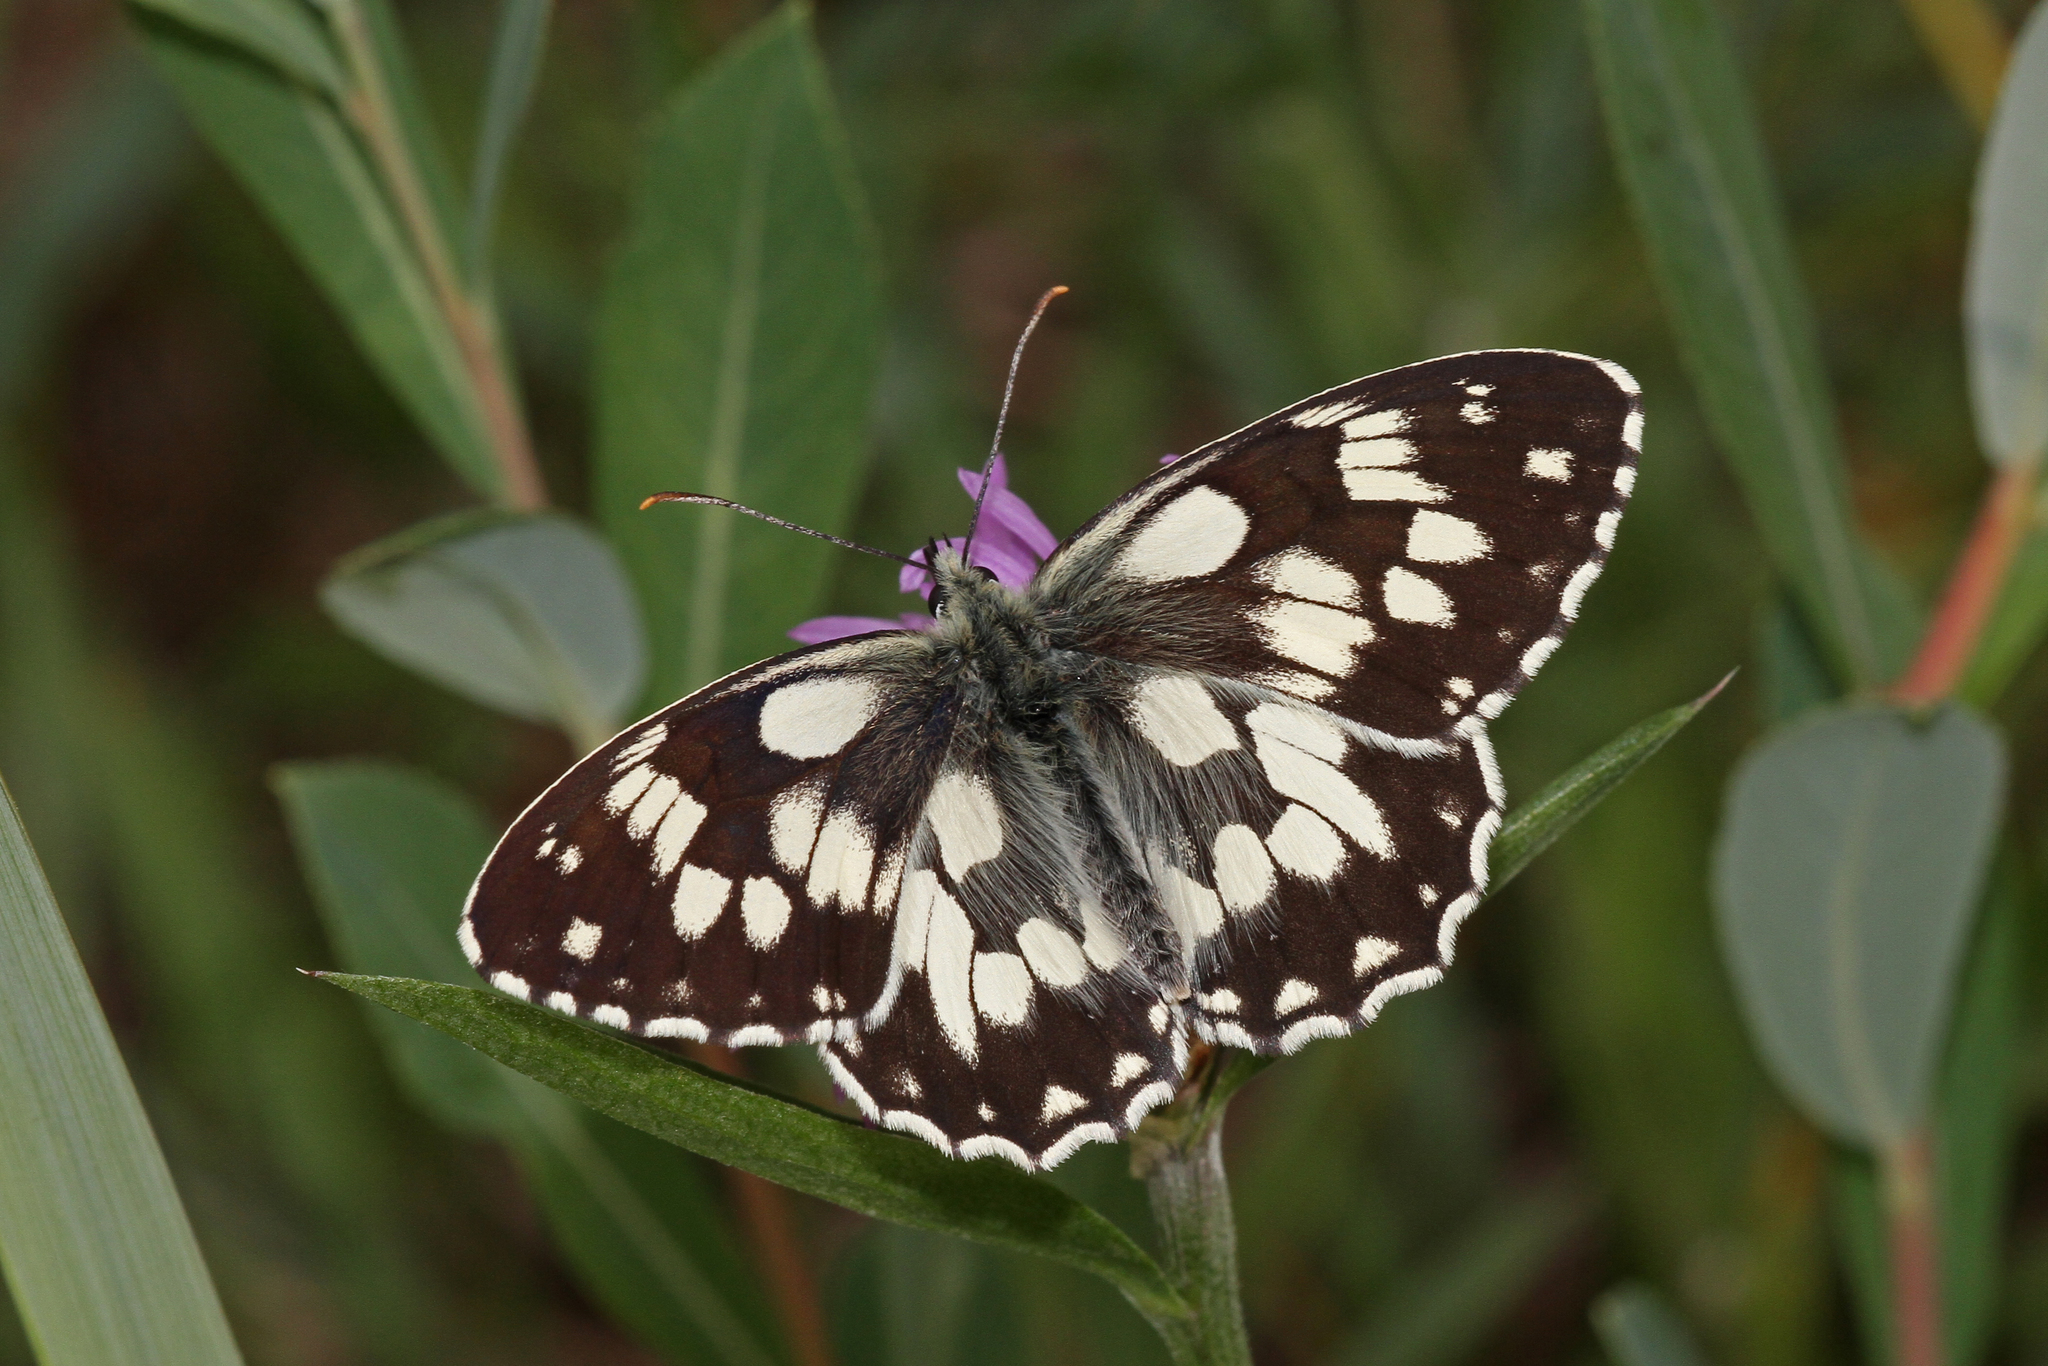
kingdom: Animalia
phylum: Arthropoda
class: Insecta
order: Lepidoptera
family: Nymphalidae
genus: Melanargia
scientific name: Melanargia galathea
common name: Marbled white
